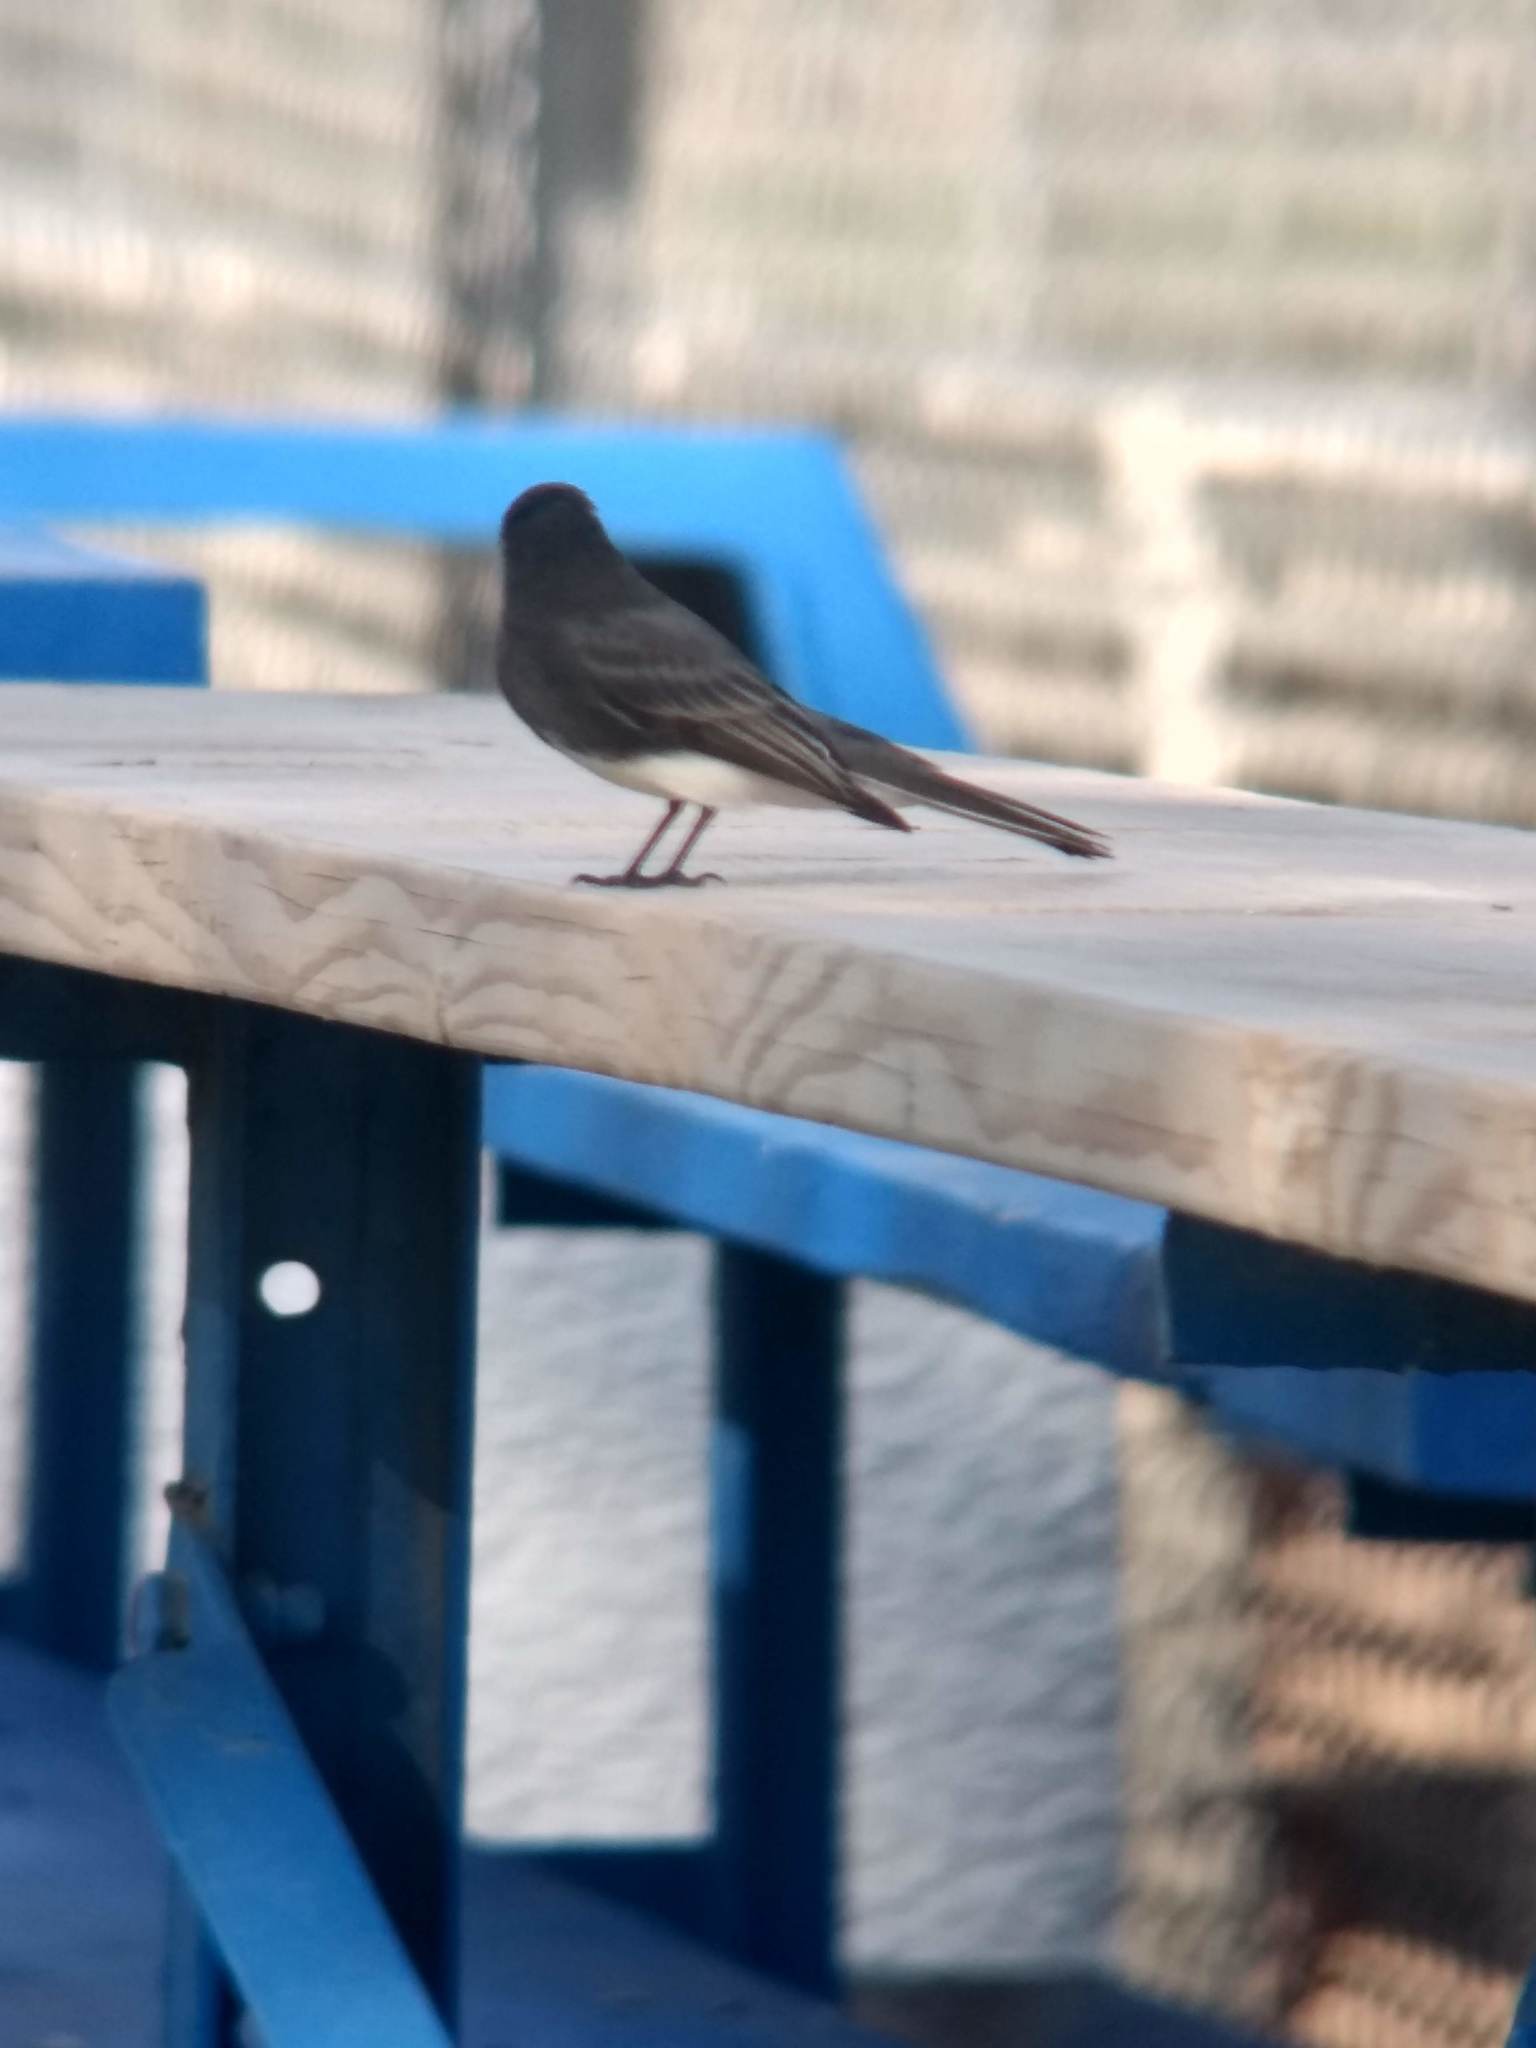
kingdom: Animalia
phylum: Chordata
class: Aves
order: Passeriformes
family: Tyrannidae
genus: Sayornis
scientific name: Sayornis nigricans
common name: Black phoebe
